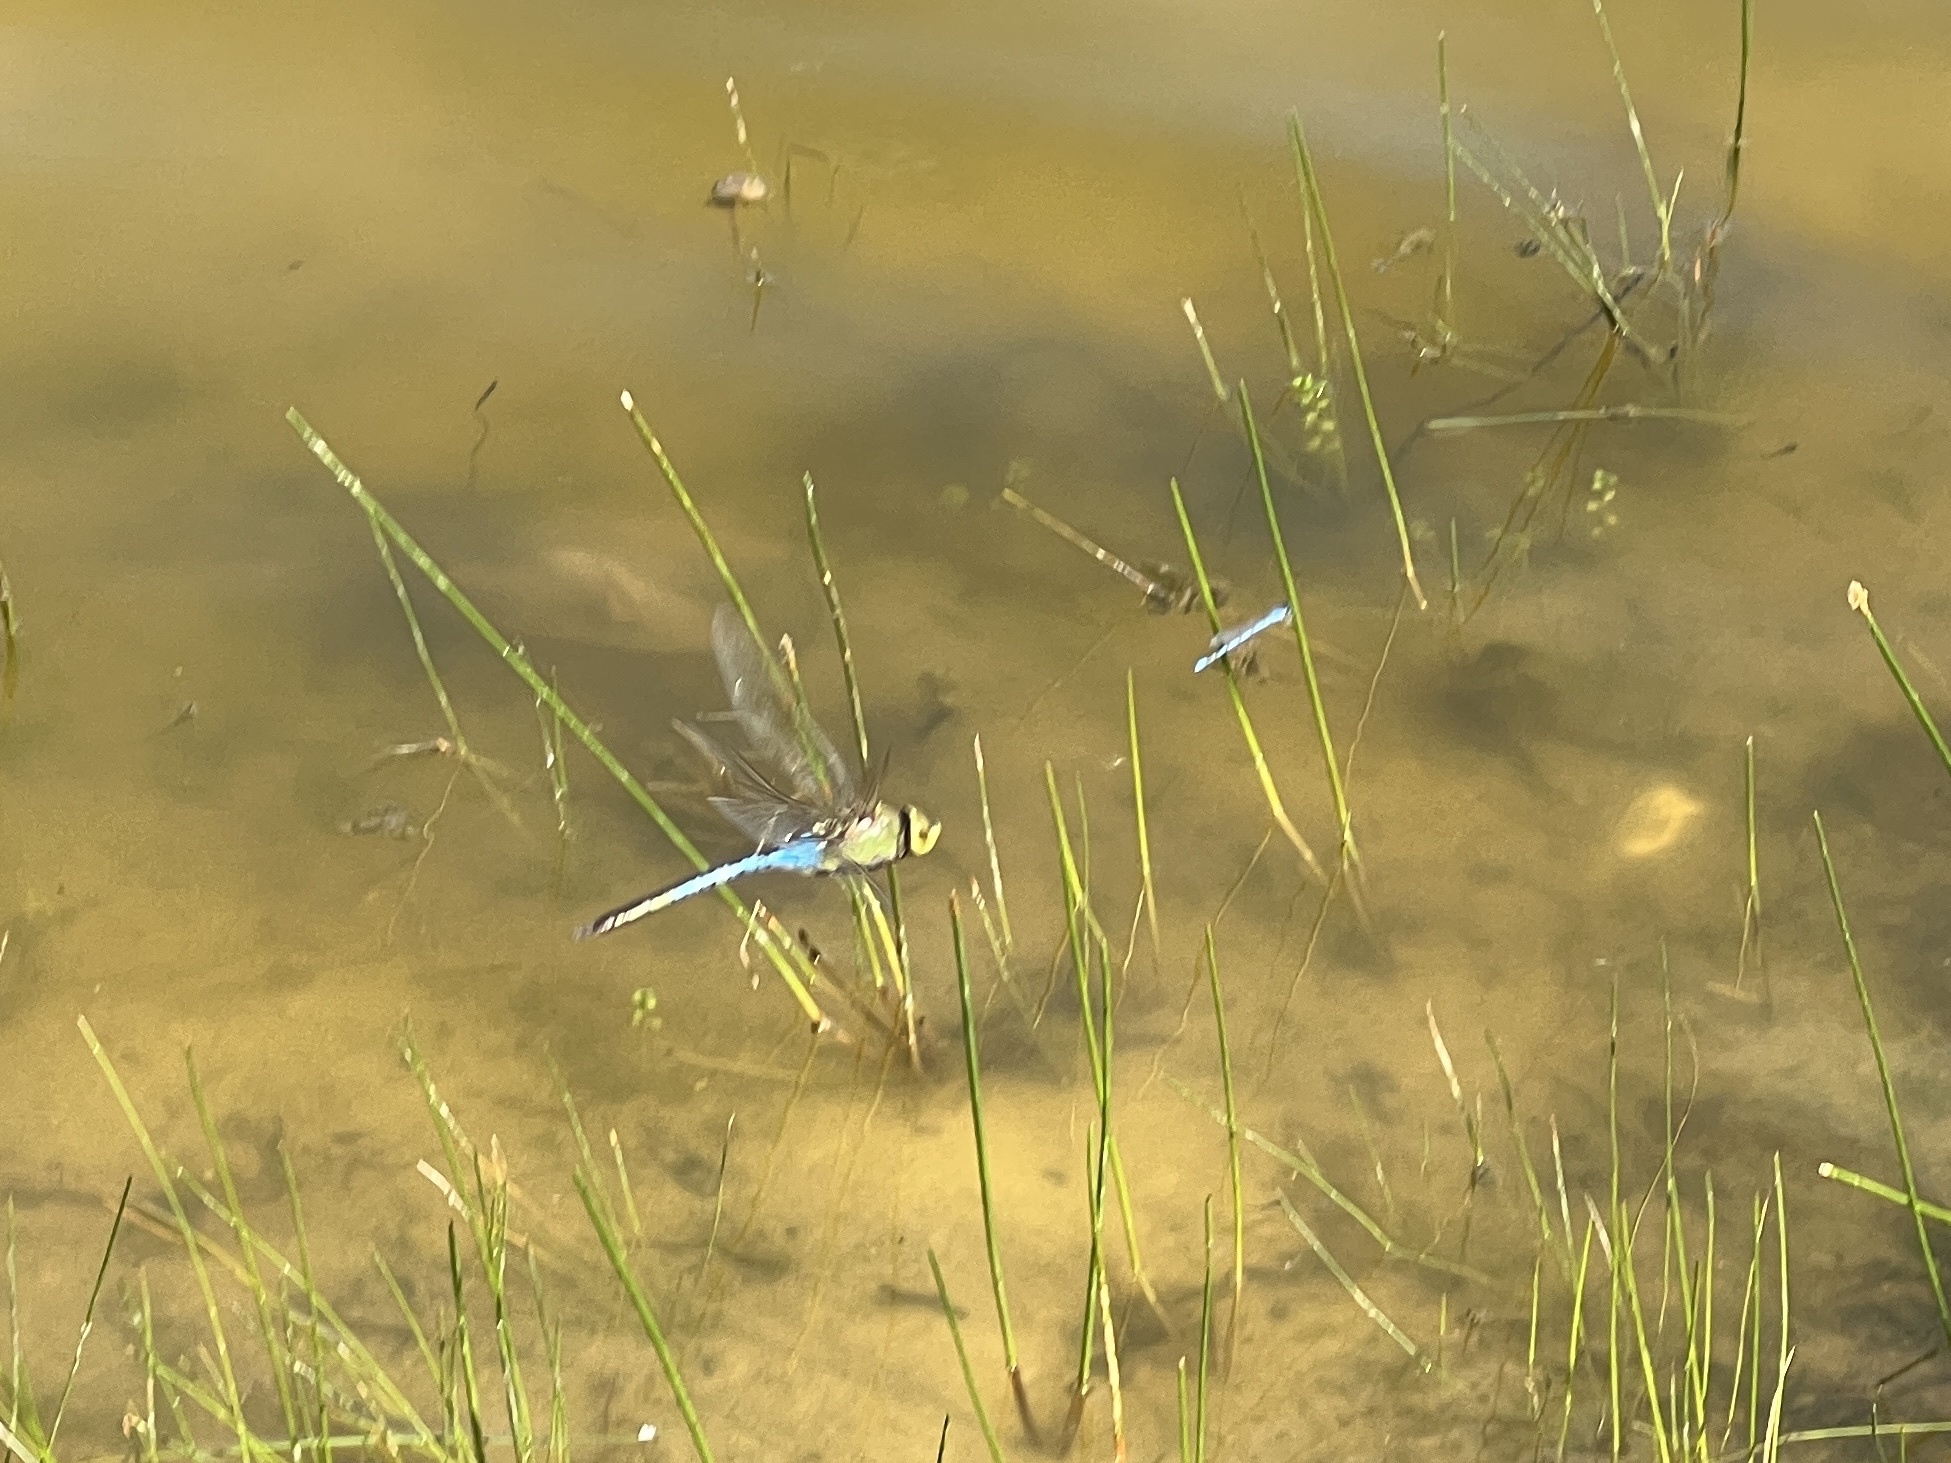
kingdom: Animalia
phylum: Arthropoda
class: Insecta
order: Odonata
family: Aeshnidae
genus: Anax
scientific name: Anax junius
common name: Common green darner
